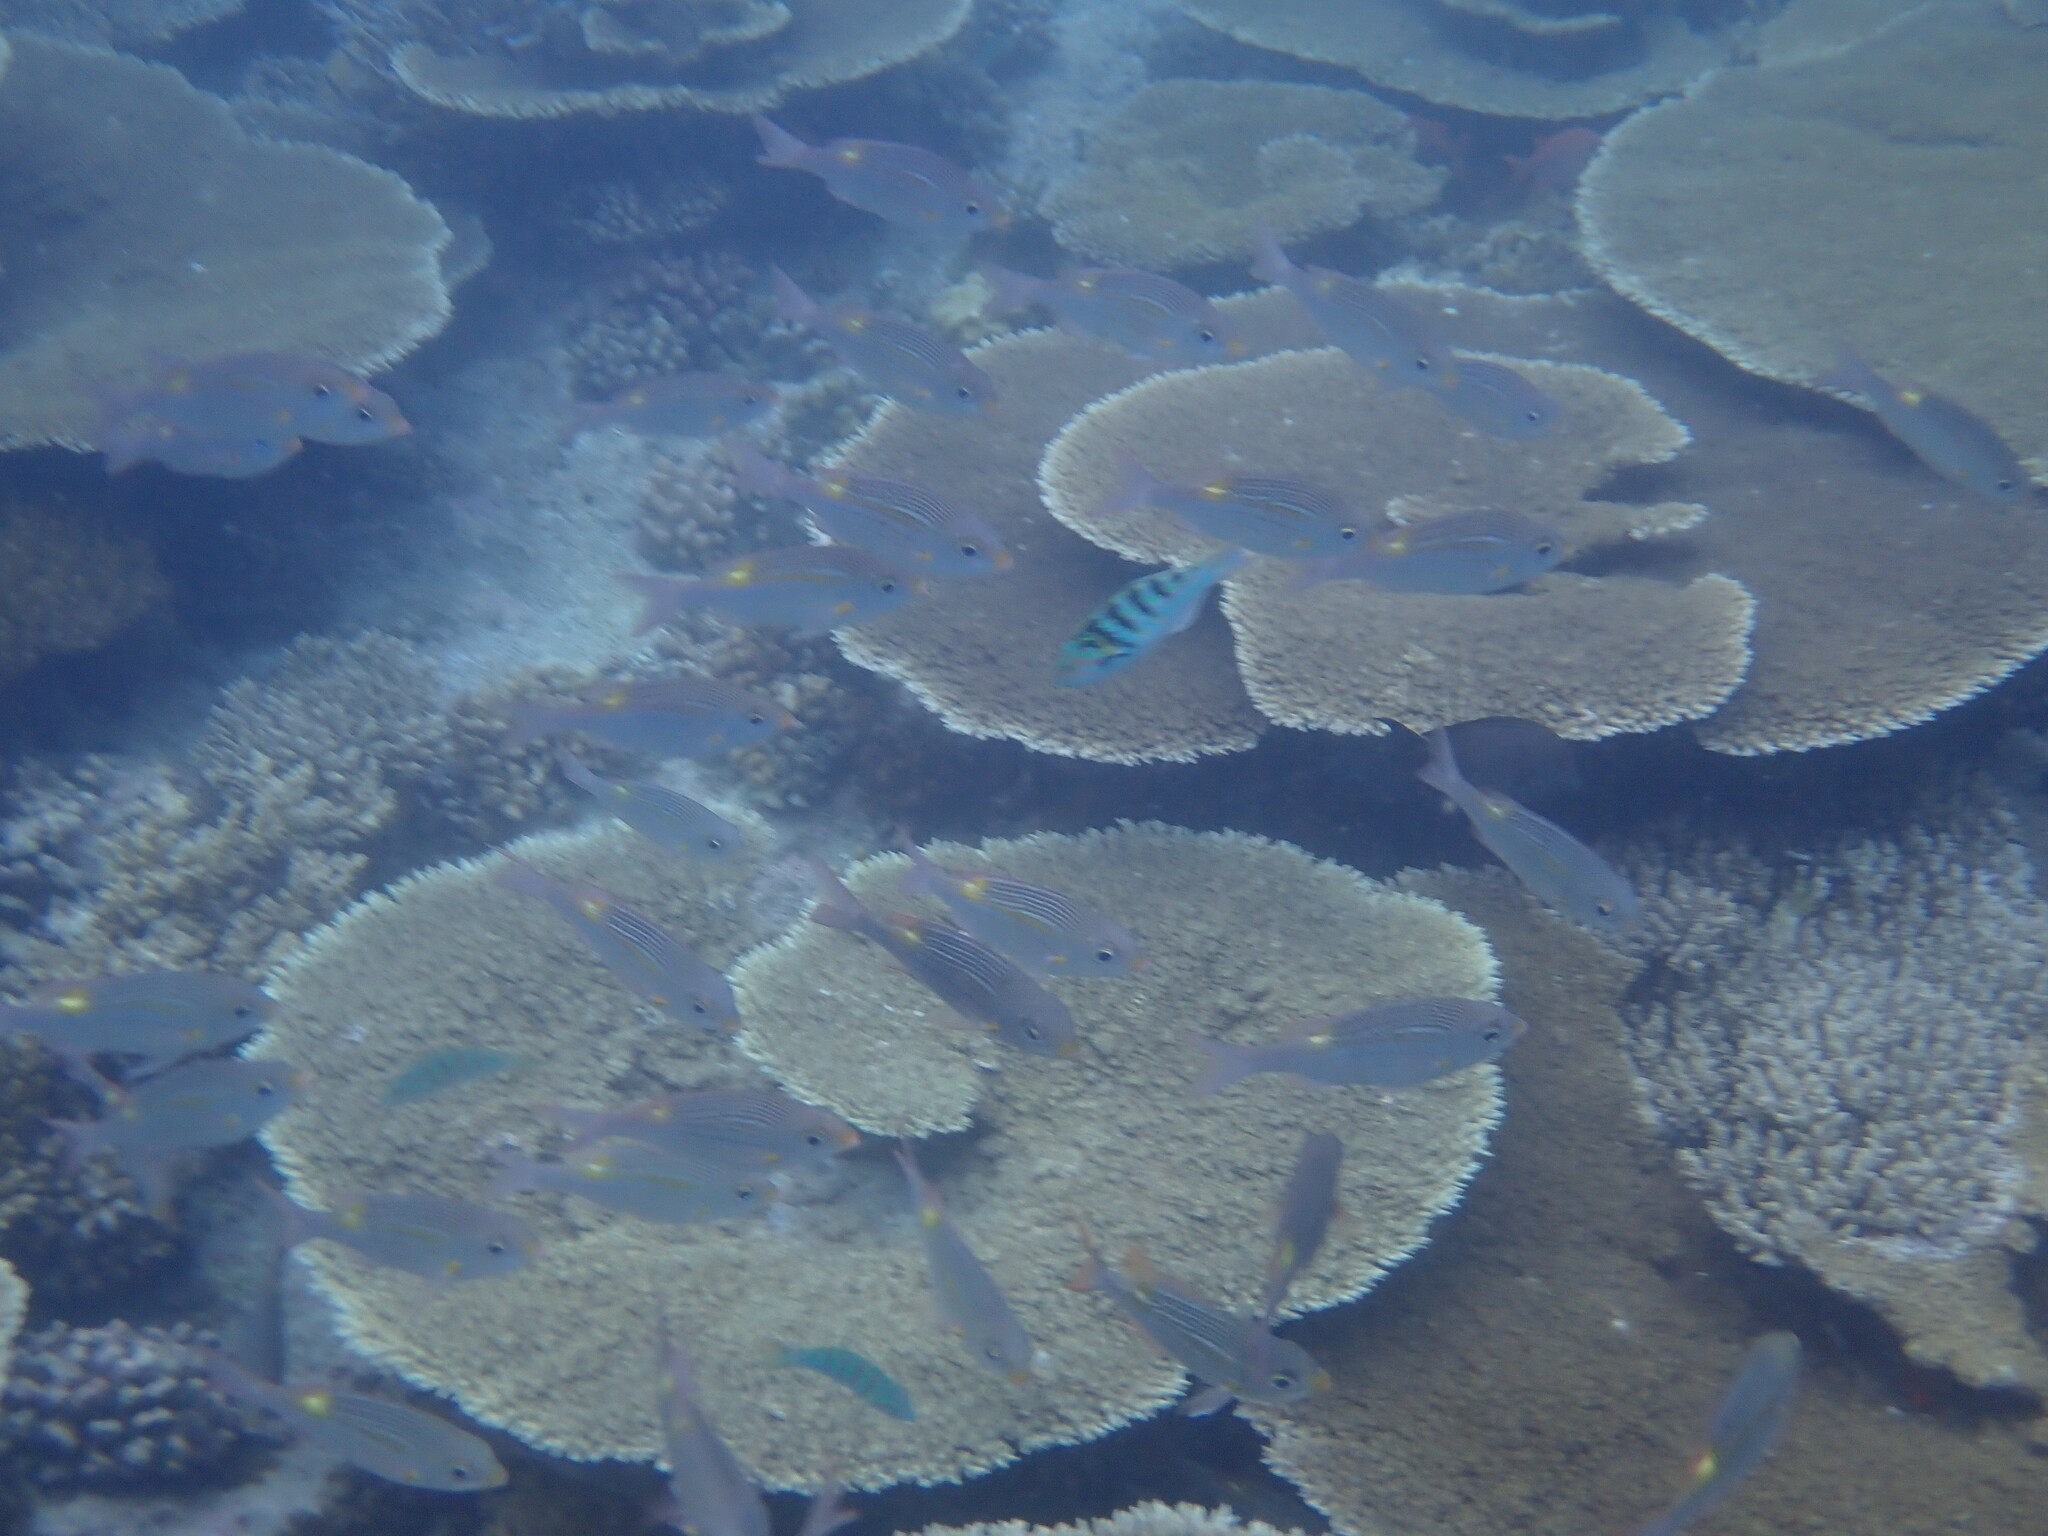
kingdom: Animalia
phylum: Chordata
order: Perciformes
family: Lethrinidae
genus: Gnathodentex
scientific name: Gnathodentex aureolineatus
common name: Gold-lined sea bream
